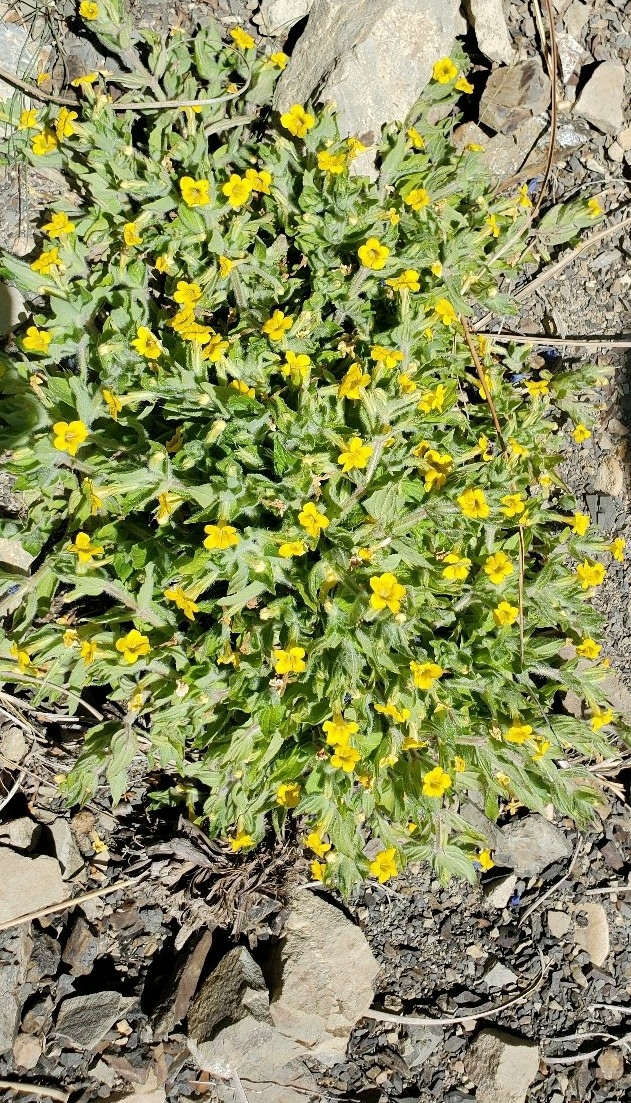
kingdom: Plantae
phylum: Tracheophyta
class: Magnoliopsida
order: Lamiales
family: Phrymaceae
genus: Erythranthe
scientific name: Erythranthe moschata
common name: Muskflower
